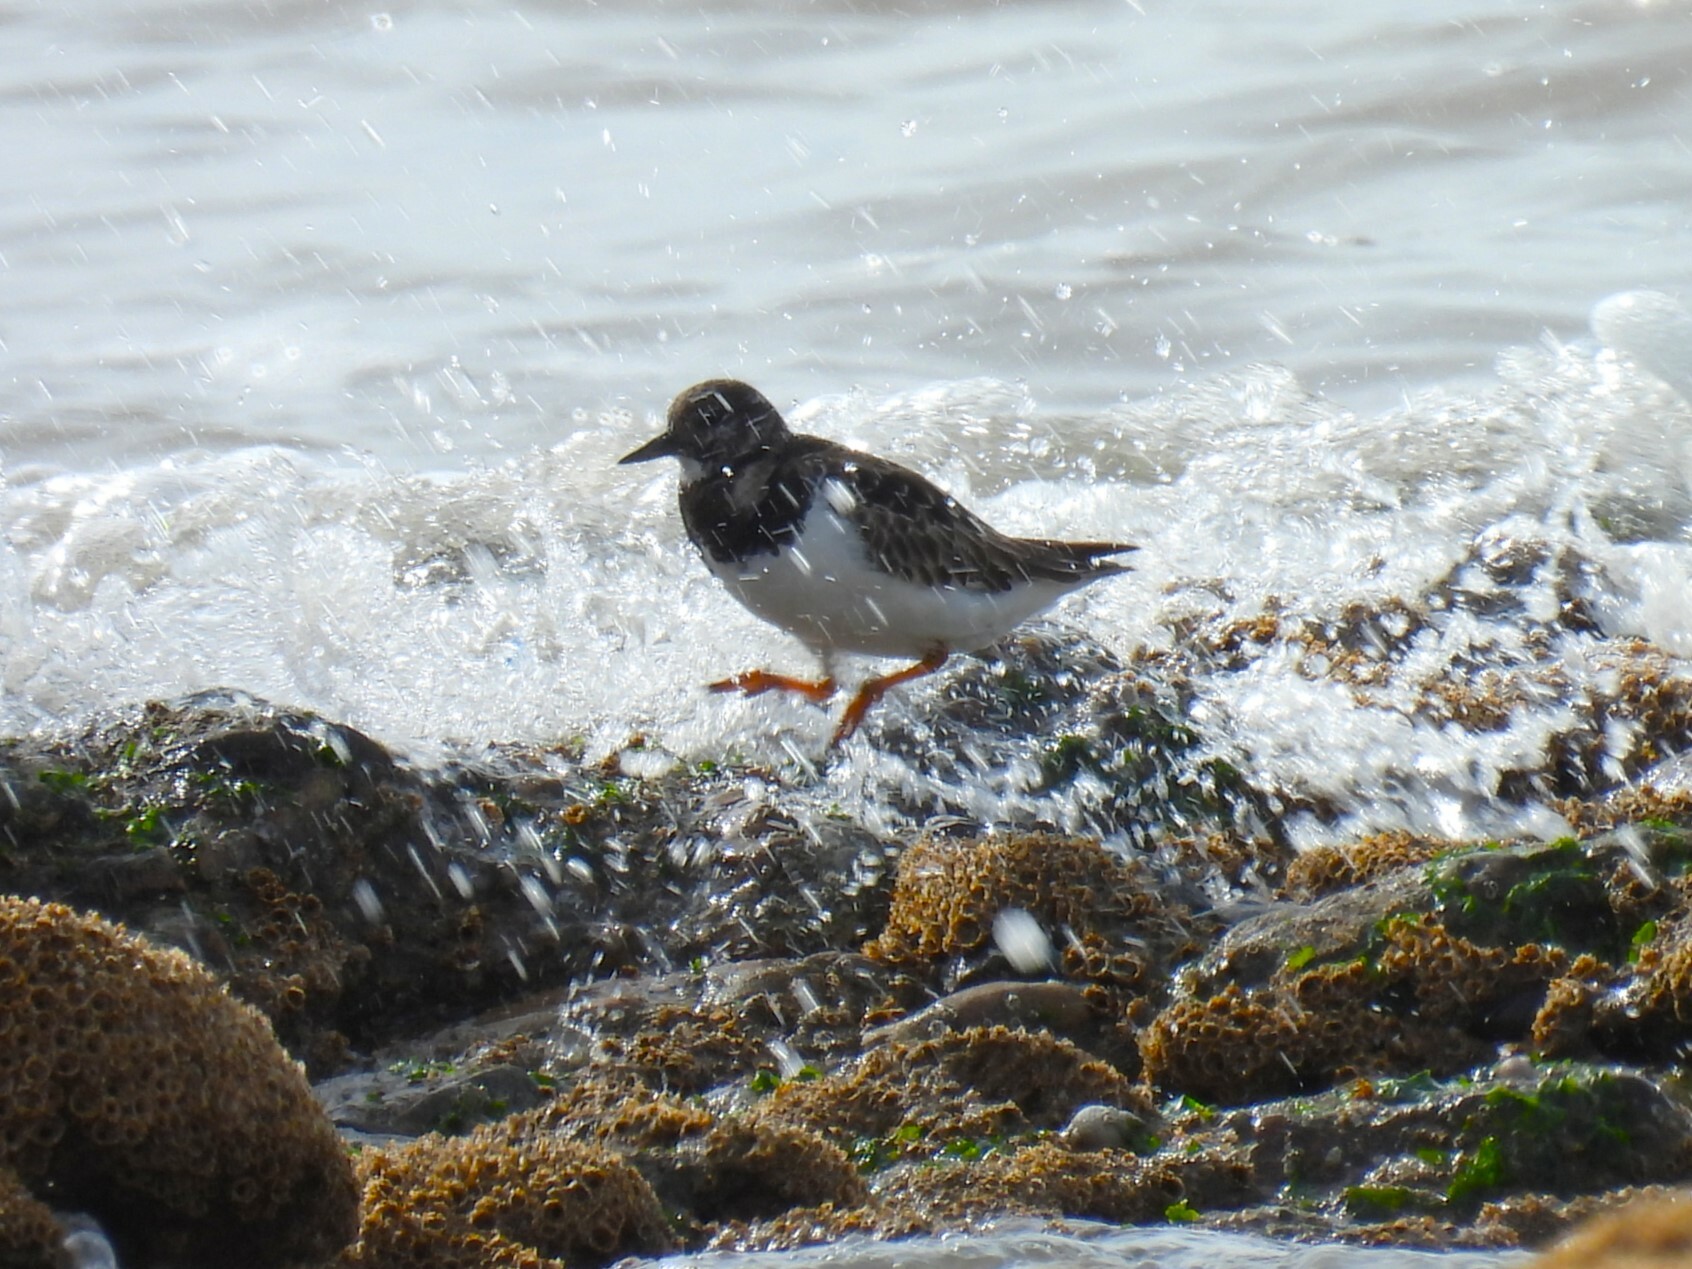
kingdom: Animalia
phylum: Chordata
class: Aves
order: Charadriiformes
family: Scolopacidae
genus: Arenaria
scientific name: Arenaria interpres
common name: Ruddy turnstone
